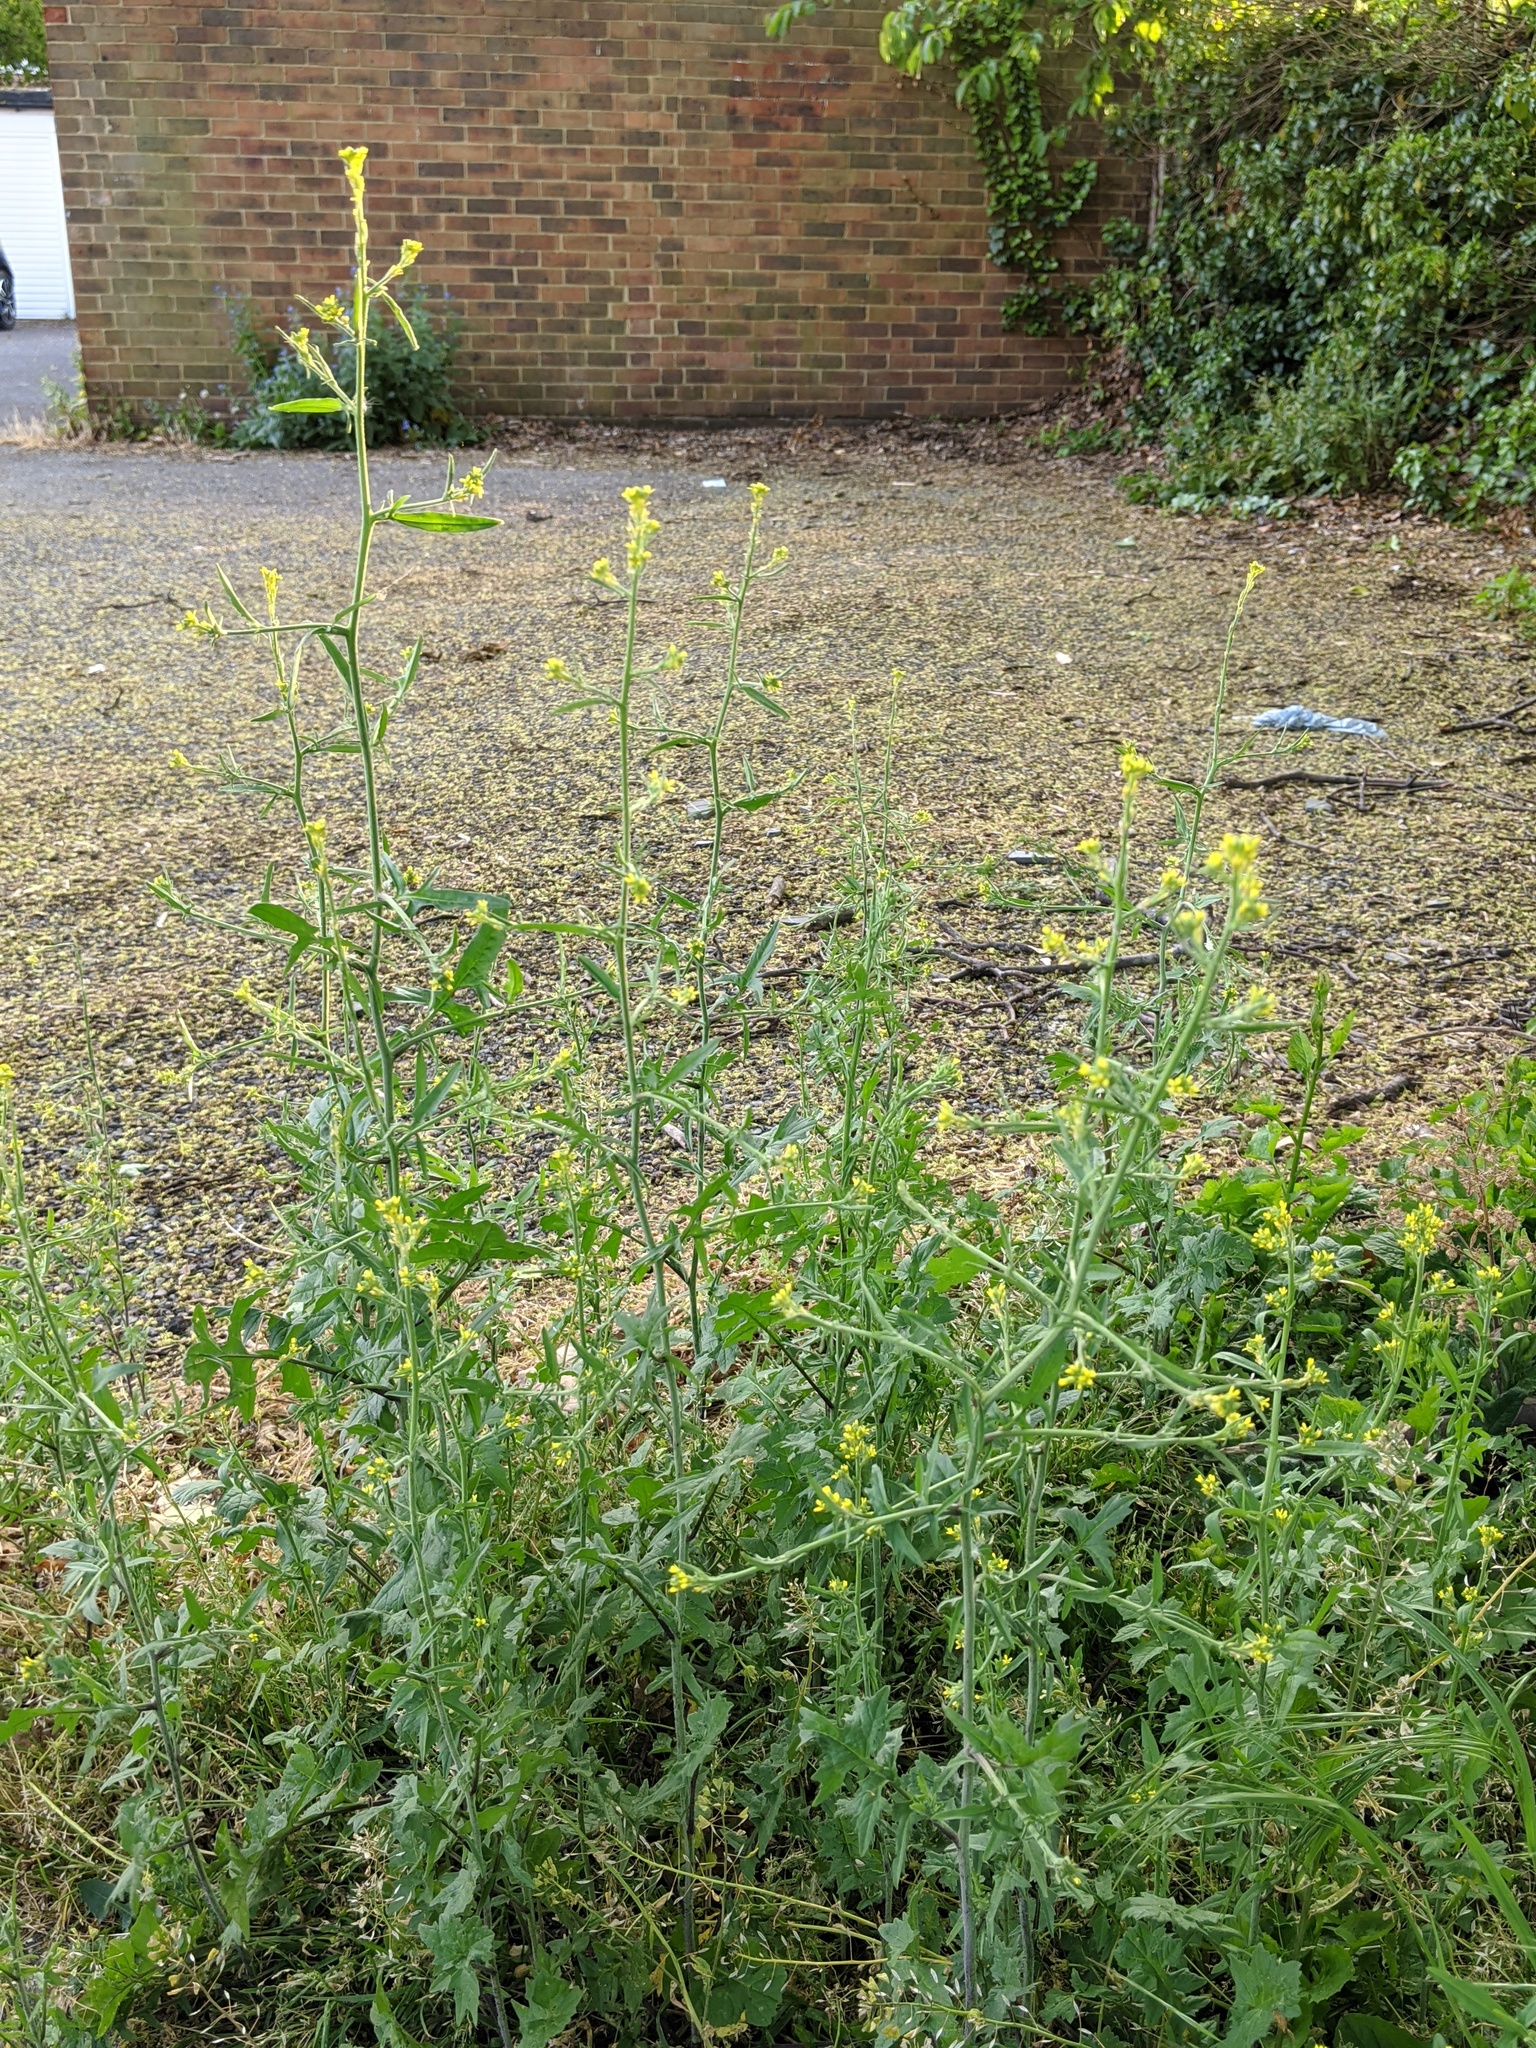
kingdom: Plantae
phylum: Tracheophyta
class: Magnoliopsida
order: Brassicales
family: Brassicaceae
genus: Sisymbrium
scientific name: Sisymbrium officinale
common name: Hedge mustard
